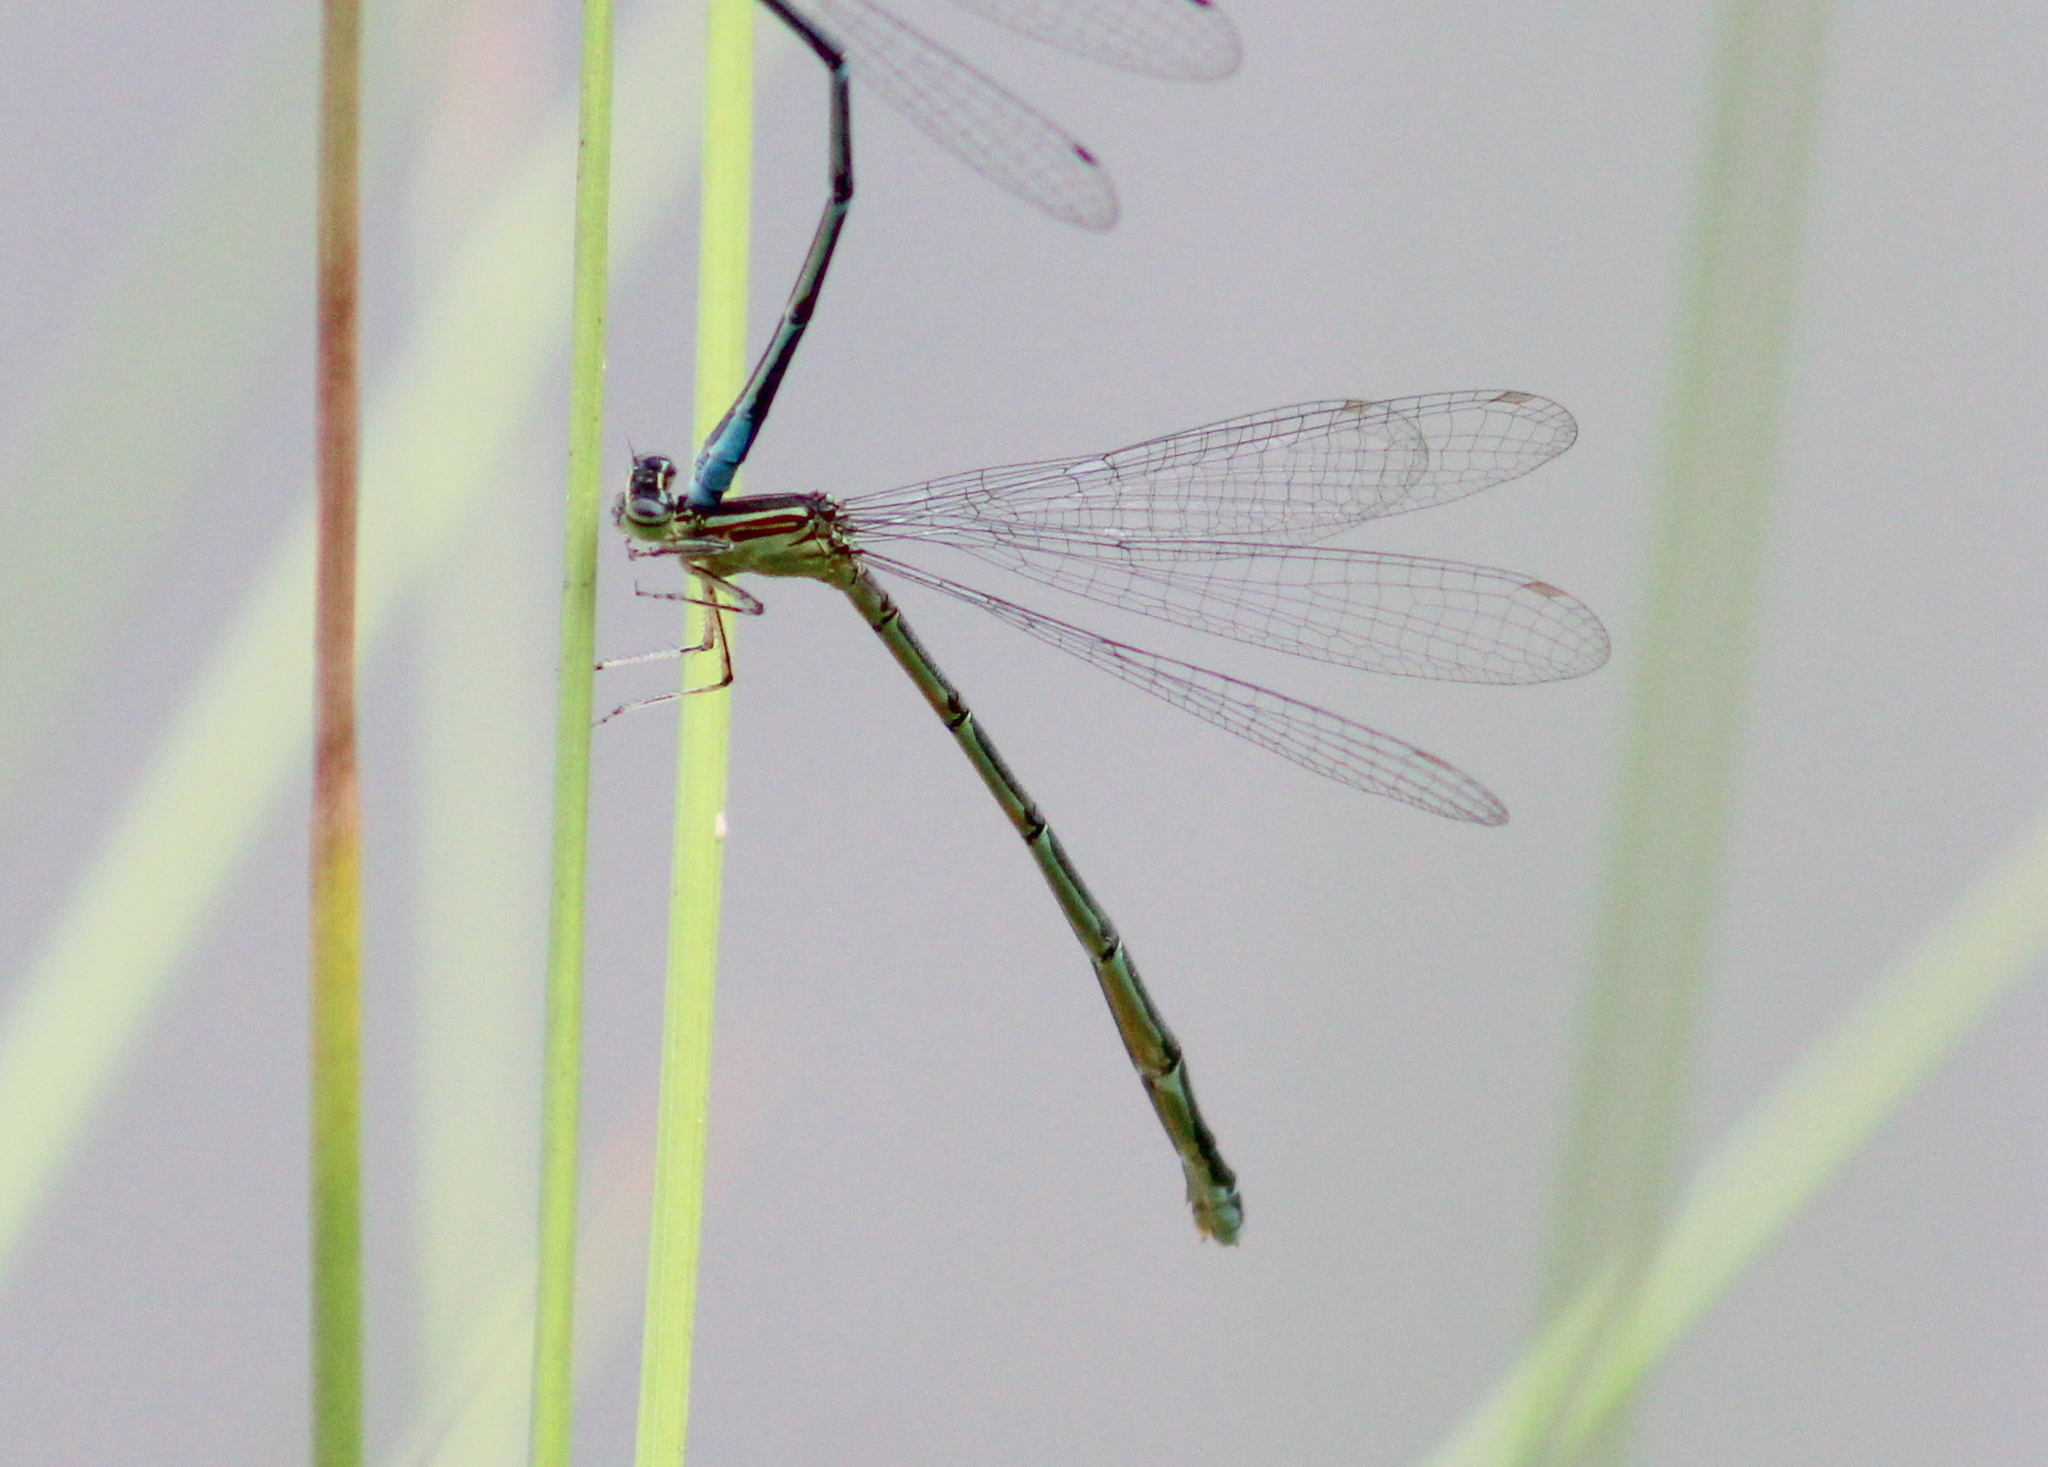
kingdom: Animalia
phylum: Arthropoda
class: Insecta
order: Odonata
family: Coenagrionidae
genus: Enallagma
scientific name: Enallagma exsulans
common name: Stream bluet
